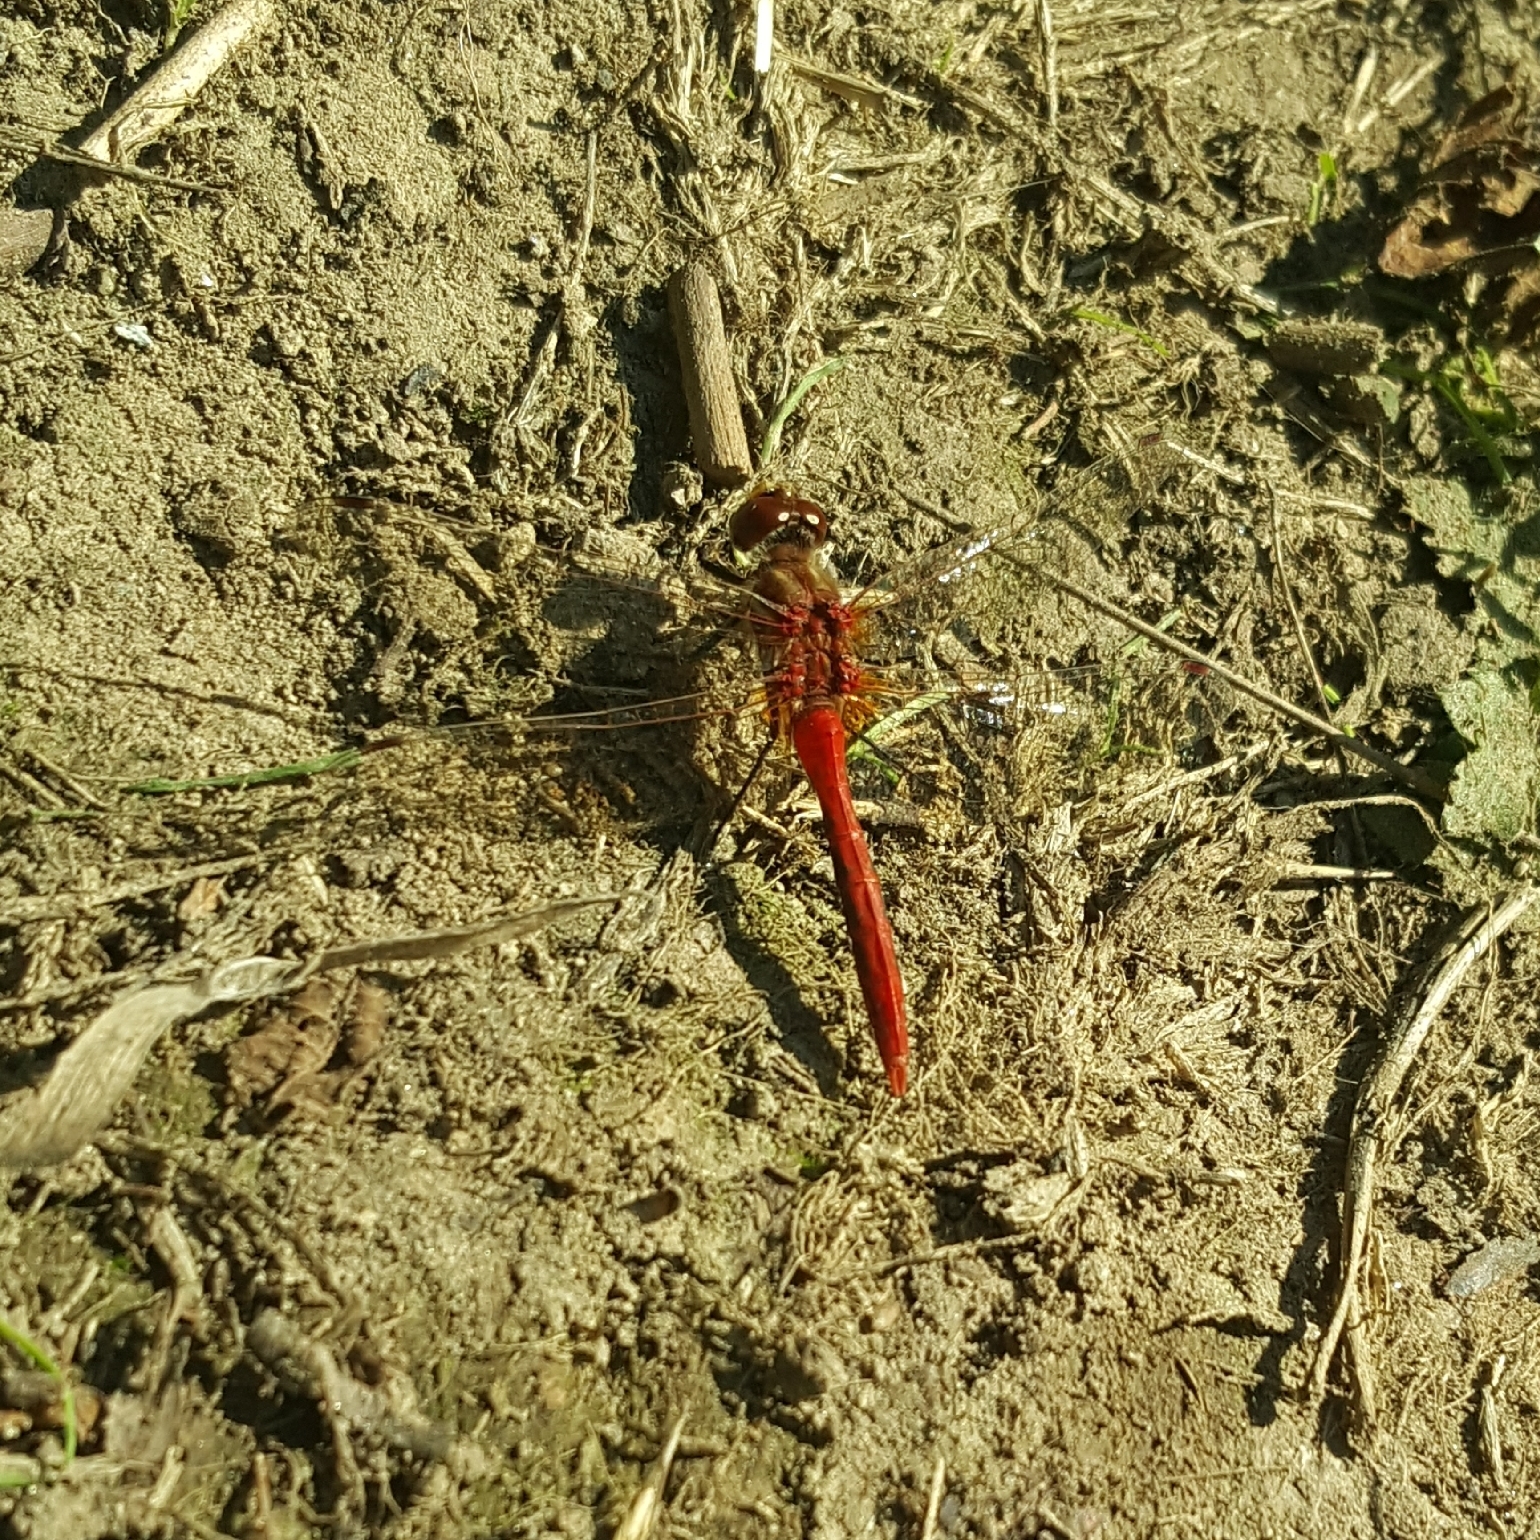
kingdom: Animalia
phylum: Arthropoda
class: Insecta
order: Odonata
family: Libellulidae
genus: Sympetrum
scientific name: Sympetrum pallipes
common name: Striped meadowhawk
